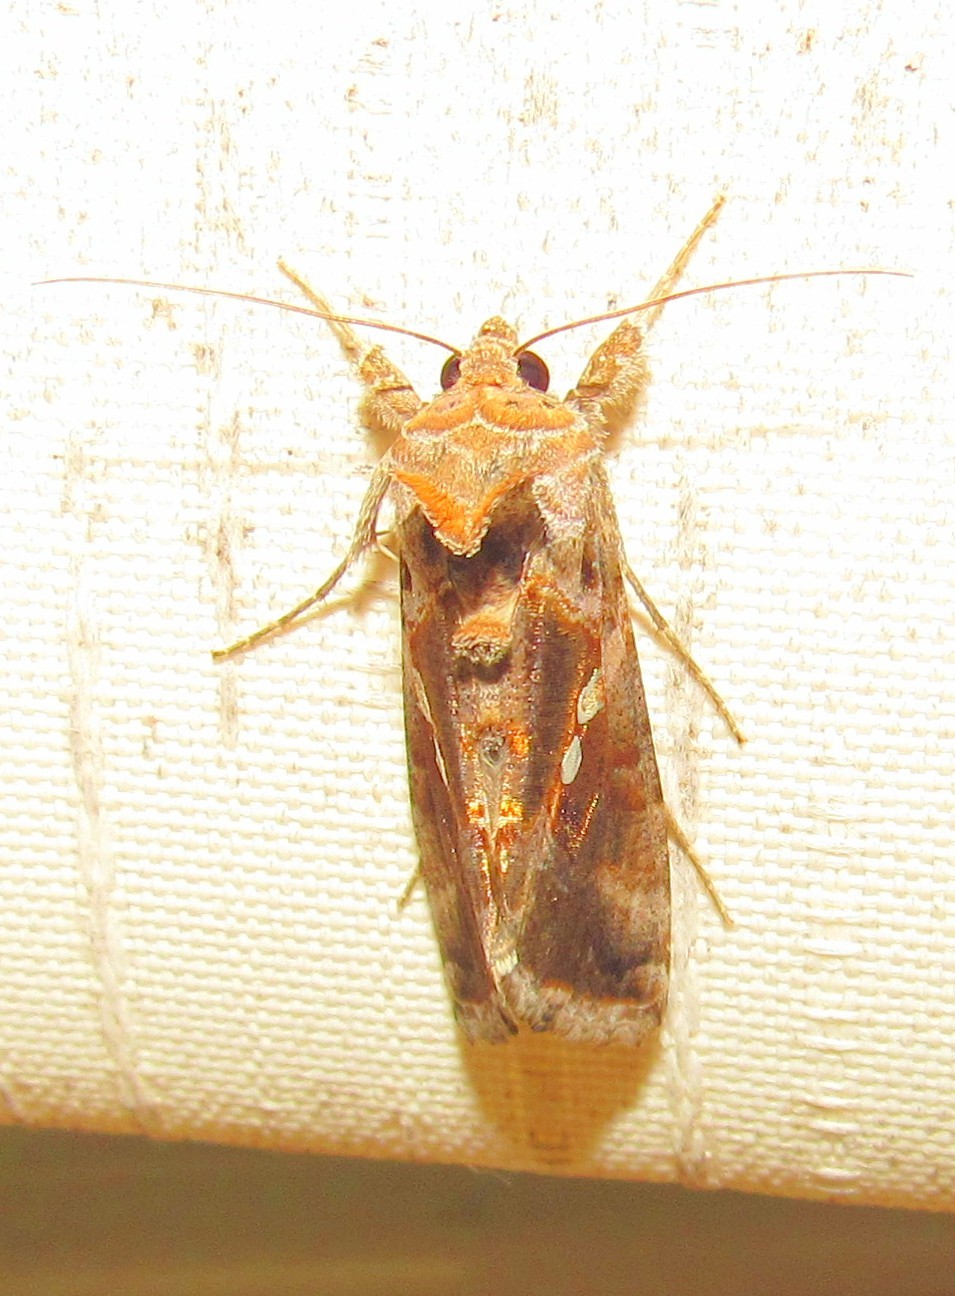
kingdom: Animalia
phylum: Arthropoda
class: Insecta
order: Lepidoptera
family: Noctuidae
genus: Chrysodeixis
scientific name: Chrysodeixis includens
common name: Cutworm moth
